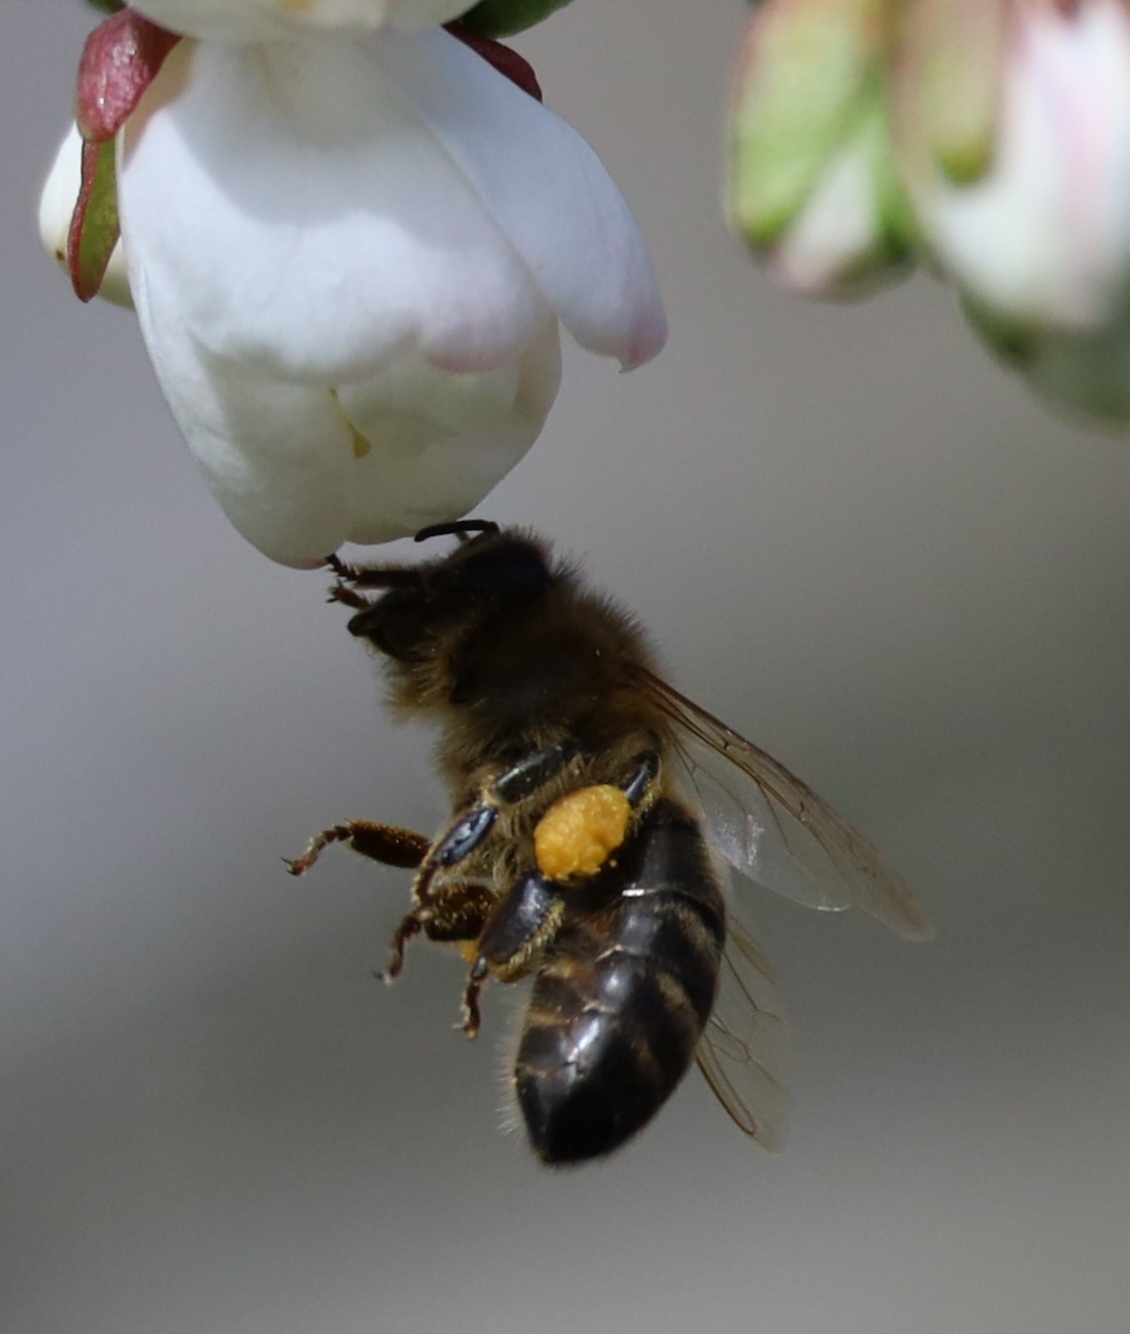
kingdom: Animalia
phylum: Arthropoda
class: Insecta
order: Hymenoptera
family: Apidae
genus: Apis
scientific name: Apis mellifera
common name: Honey bee
